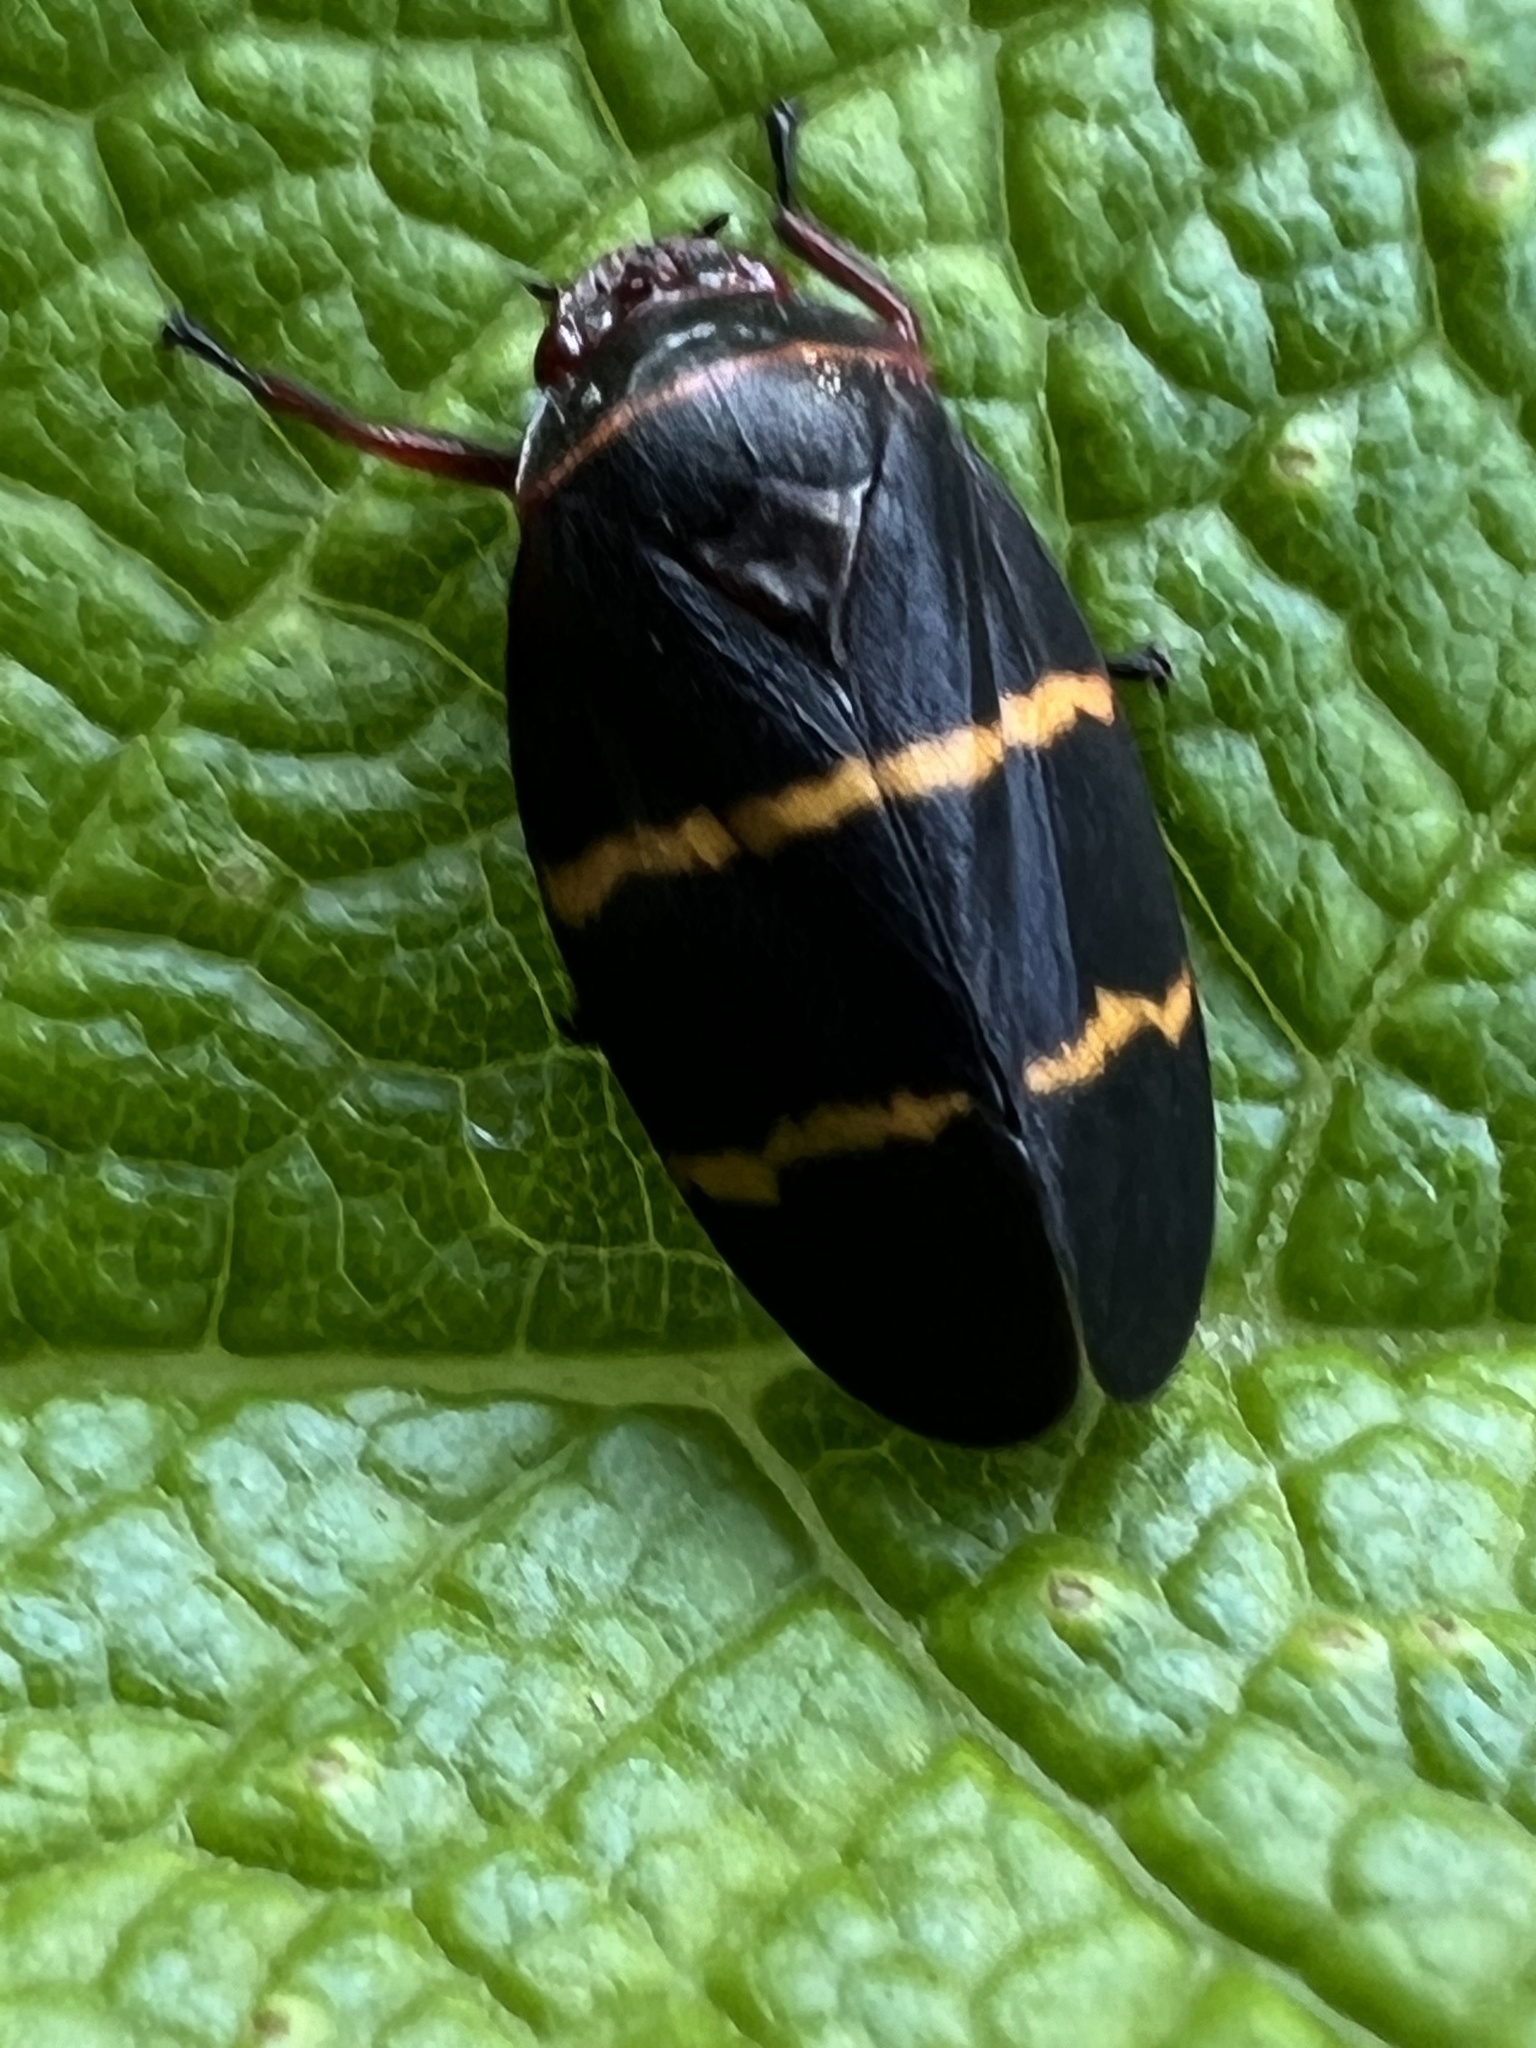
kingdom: Animalia
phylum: Arthropoda
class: Insecta
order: Hemiptera
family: Cercopidae
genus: Prosapia
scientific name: Prosapia bicincta
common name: Twolined spittlebug
